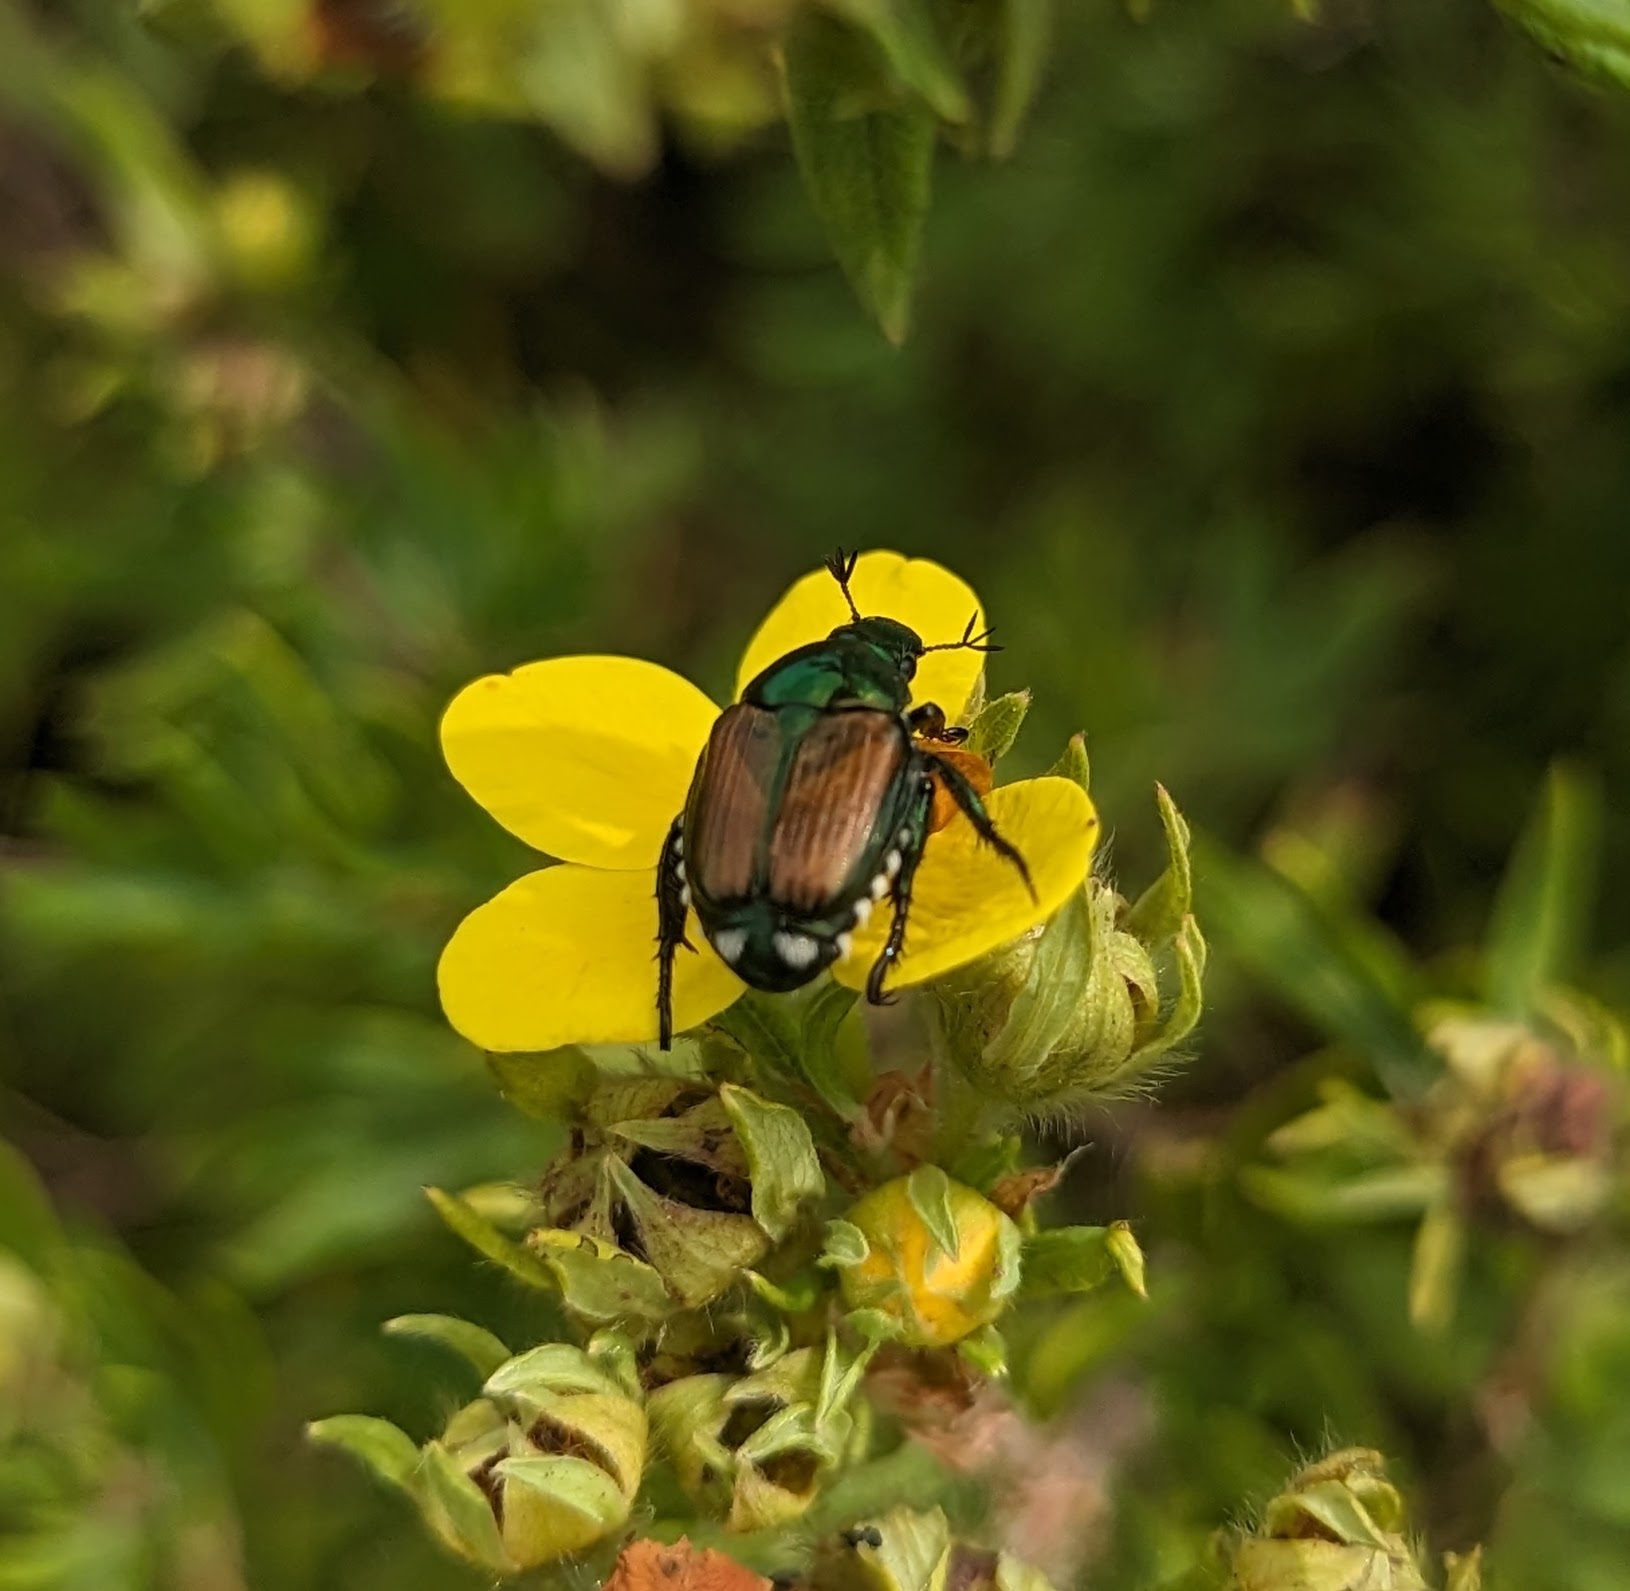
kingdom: Animalia
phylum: Arthropoda
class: Insecta
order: Coleoptera
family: Scarabaeidae
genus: Popillia
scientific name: Popillia japonica
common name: Japanese beetle
